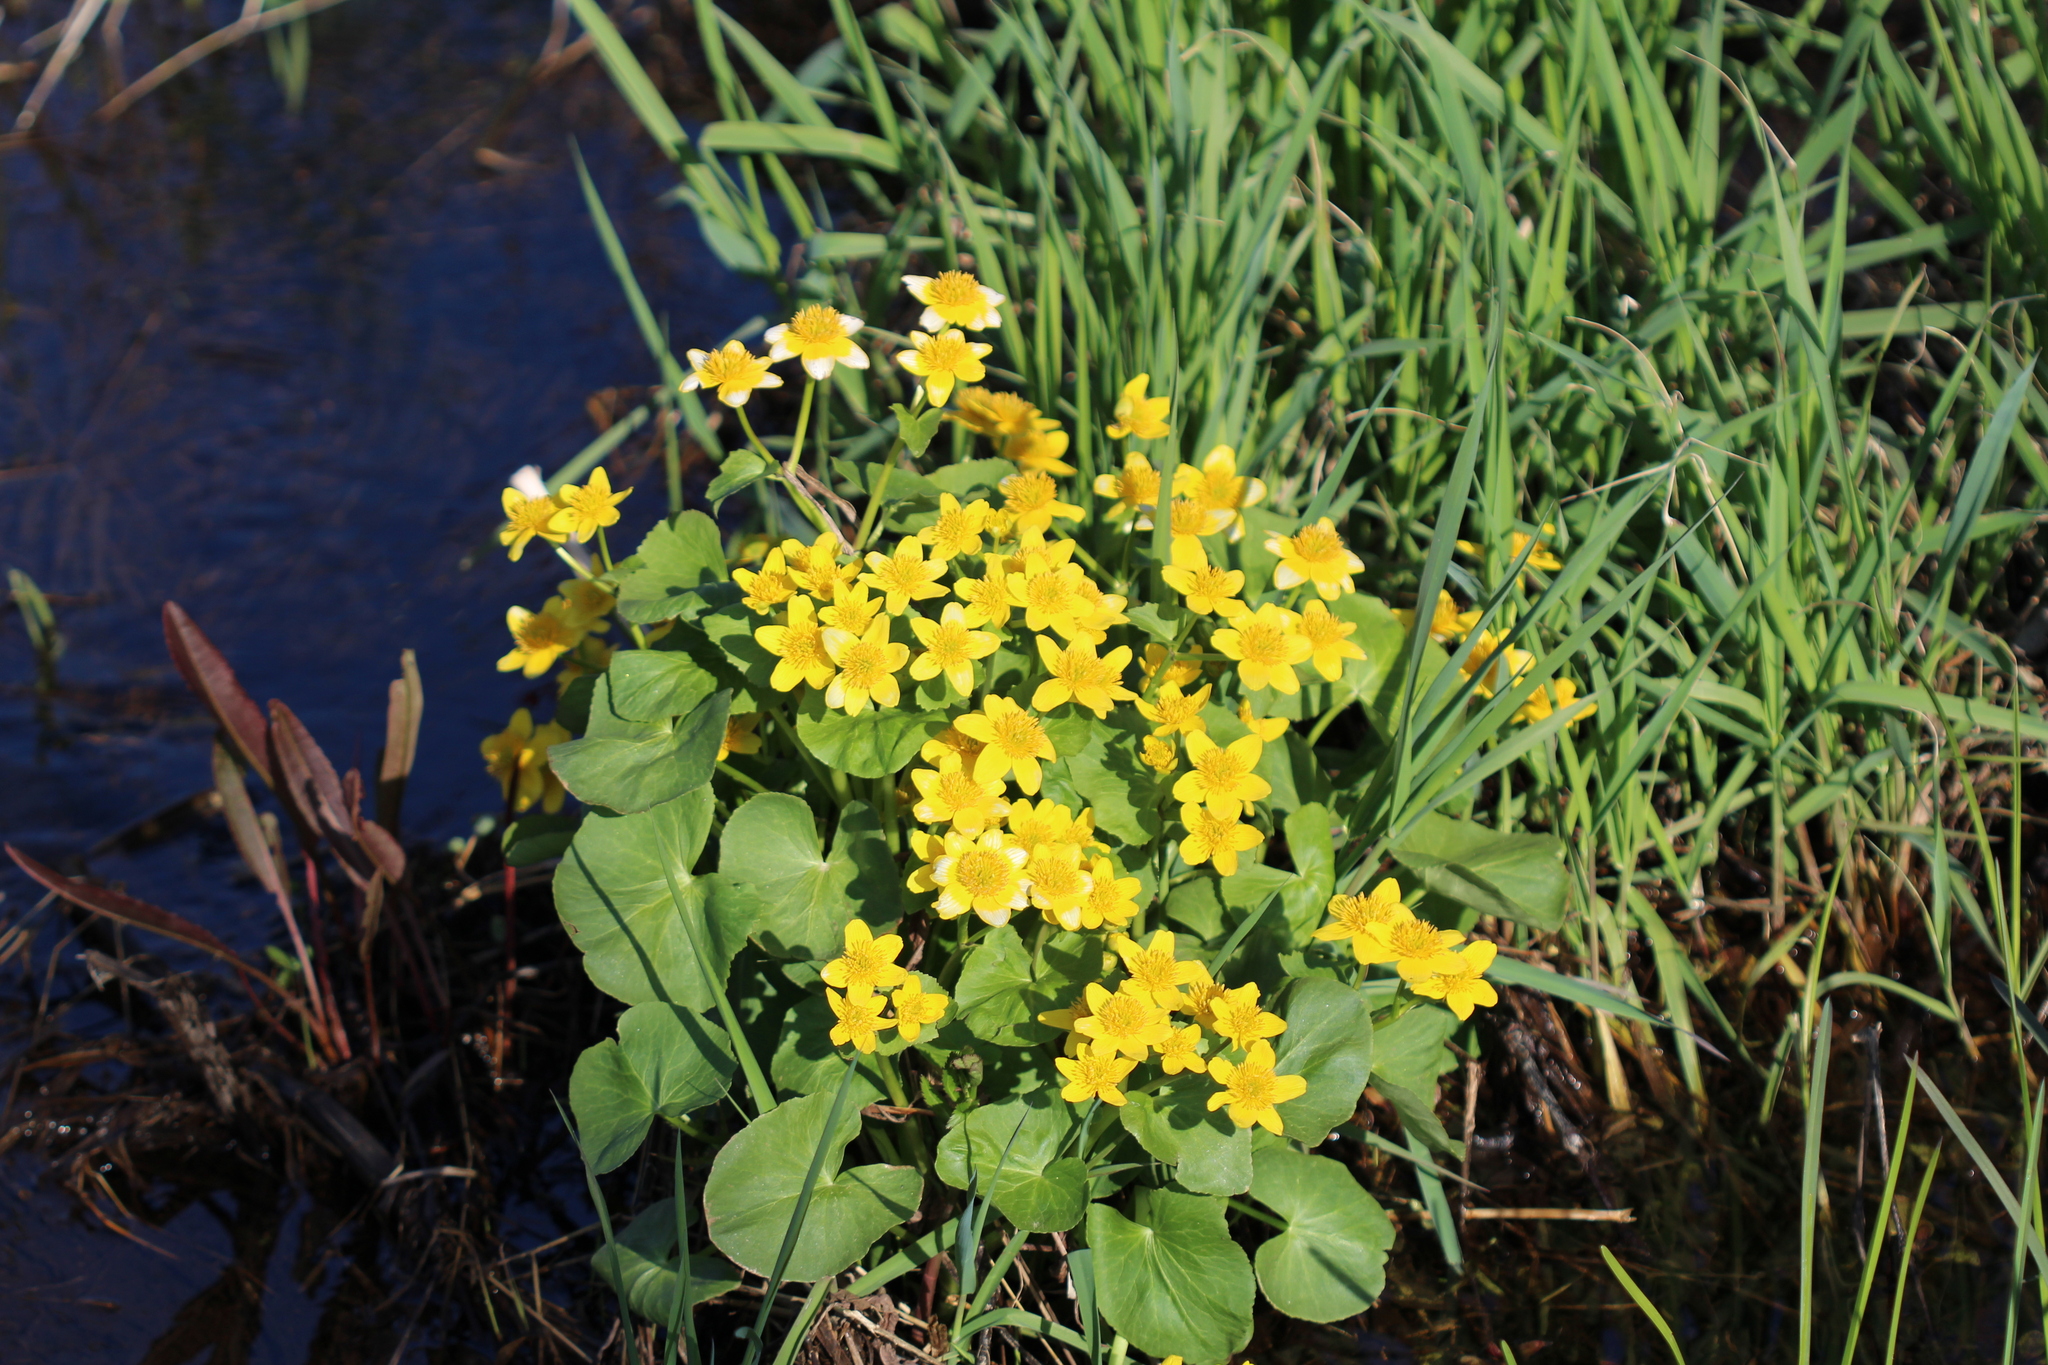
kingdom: Plantae
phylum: Tracheophyta
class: Magnoliopsida
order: Ranunculales
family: Ranunculaceae
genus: Caltha
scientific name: Caltha palustris
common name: Marsh marigold
